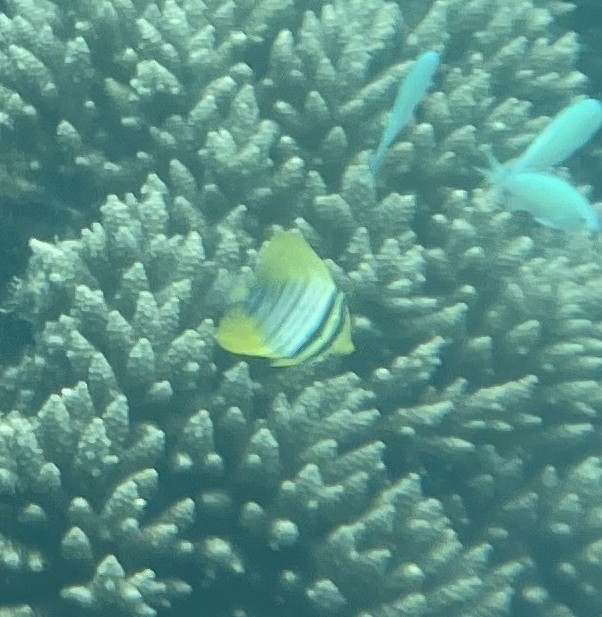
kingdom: Animalia
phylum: Chordata
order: Perciformes
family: Acanthuridae
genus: Zebrasoma
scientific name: Zebrasoma desjardinii
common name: Desjardin's sailfin tang
